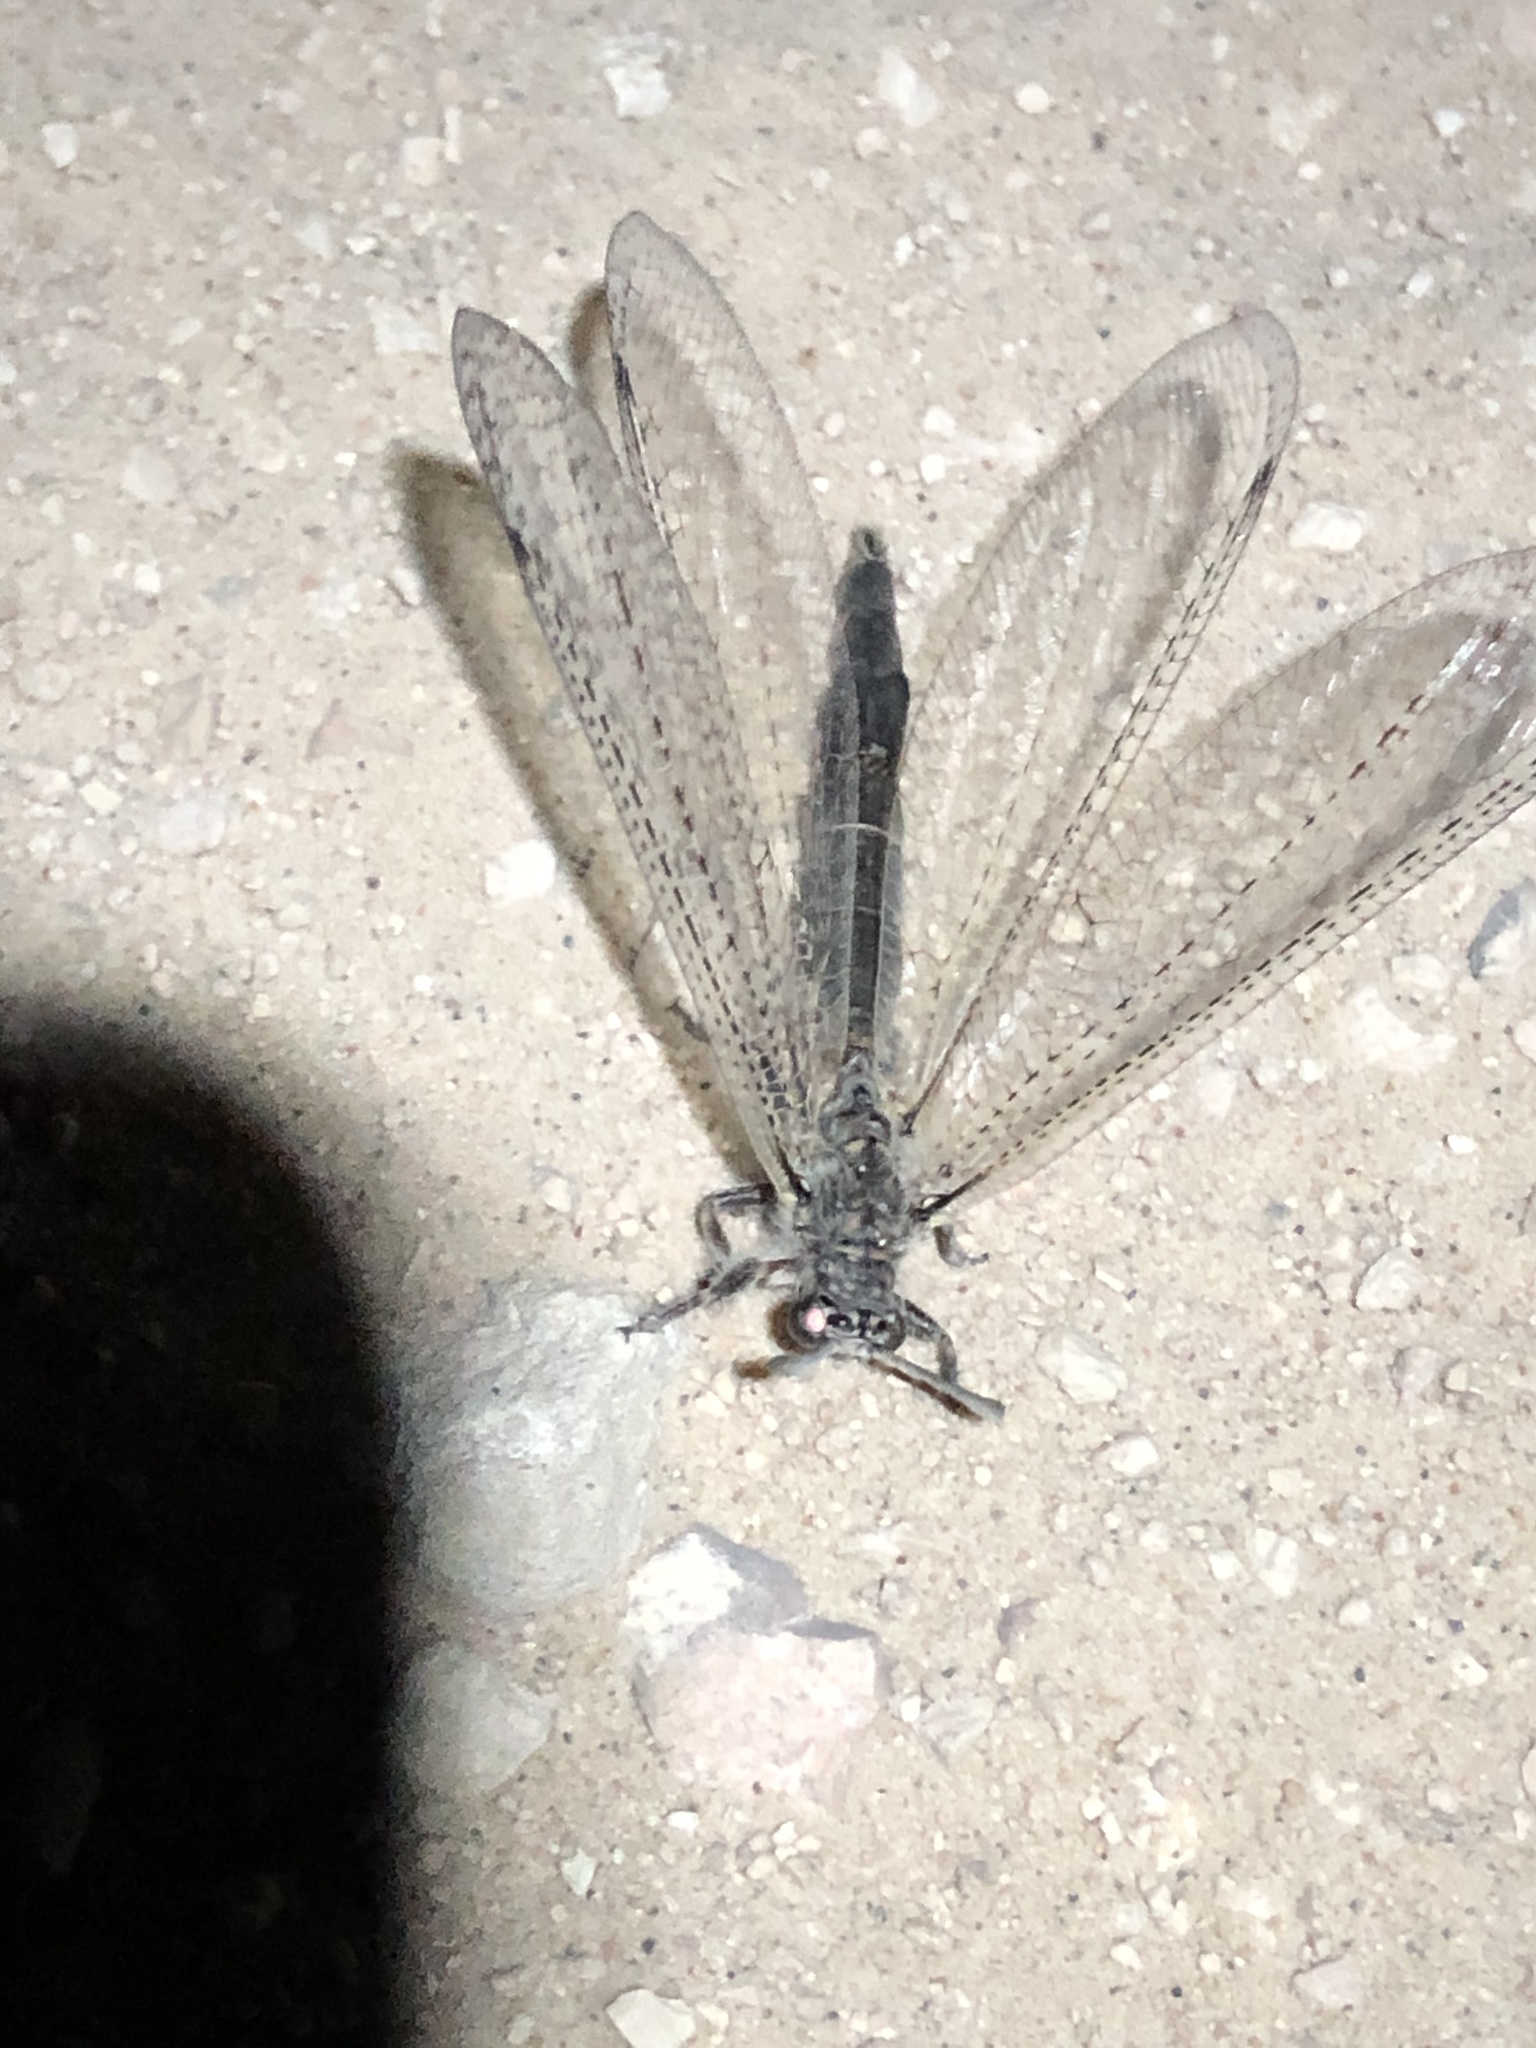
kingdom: Animalia
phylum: Arthropoda
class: Insecta
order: Neuroptera
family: Myrmeleontidae
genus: Paranthaclisis
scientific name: Paranthaclisis hageni
